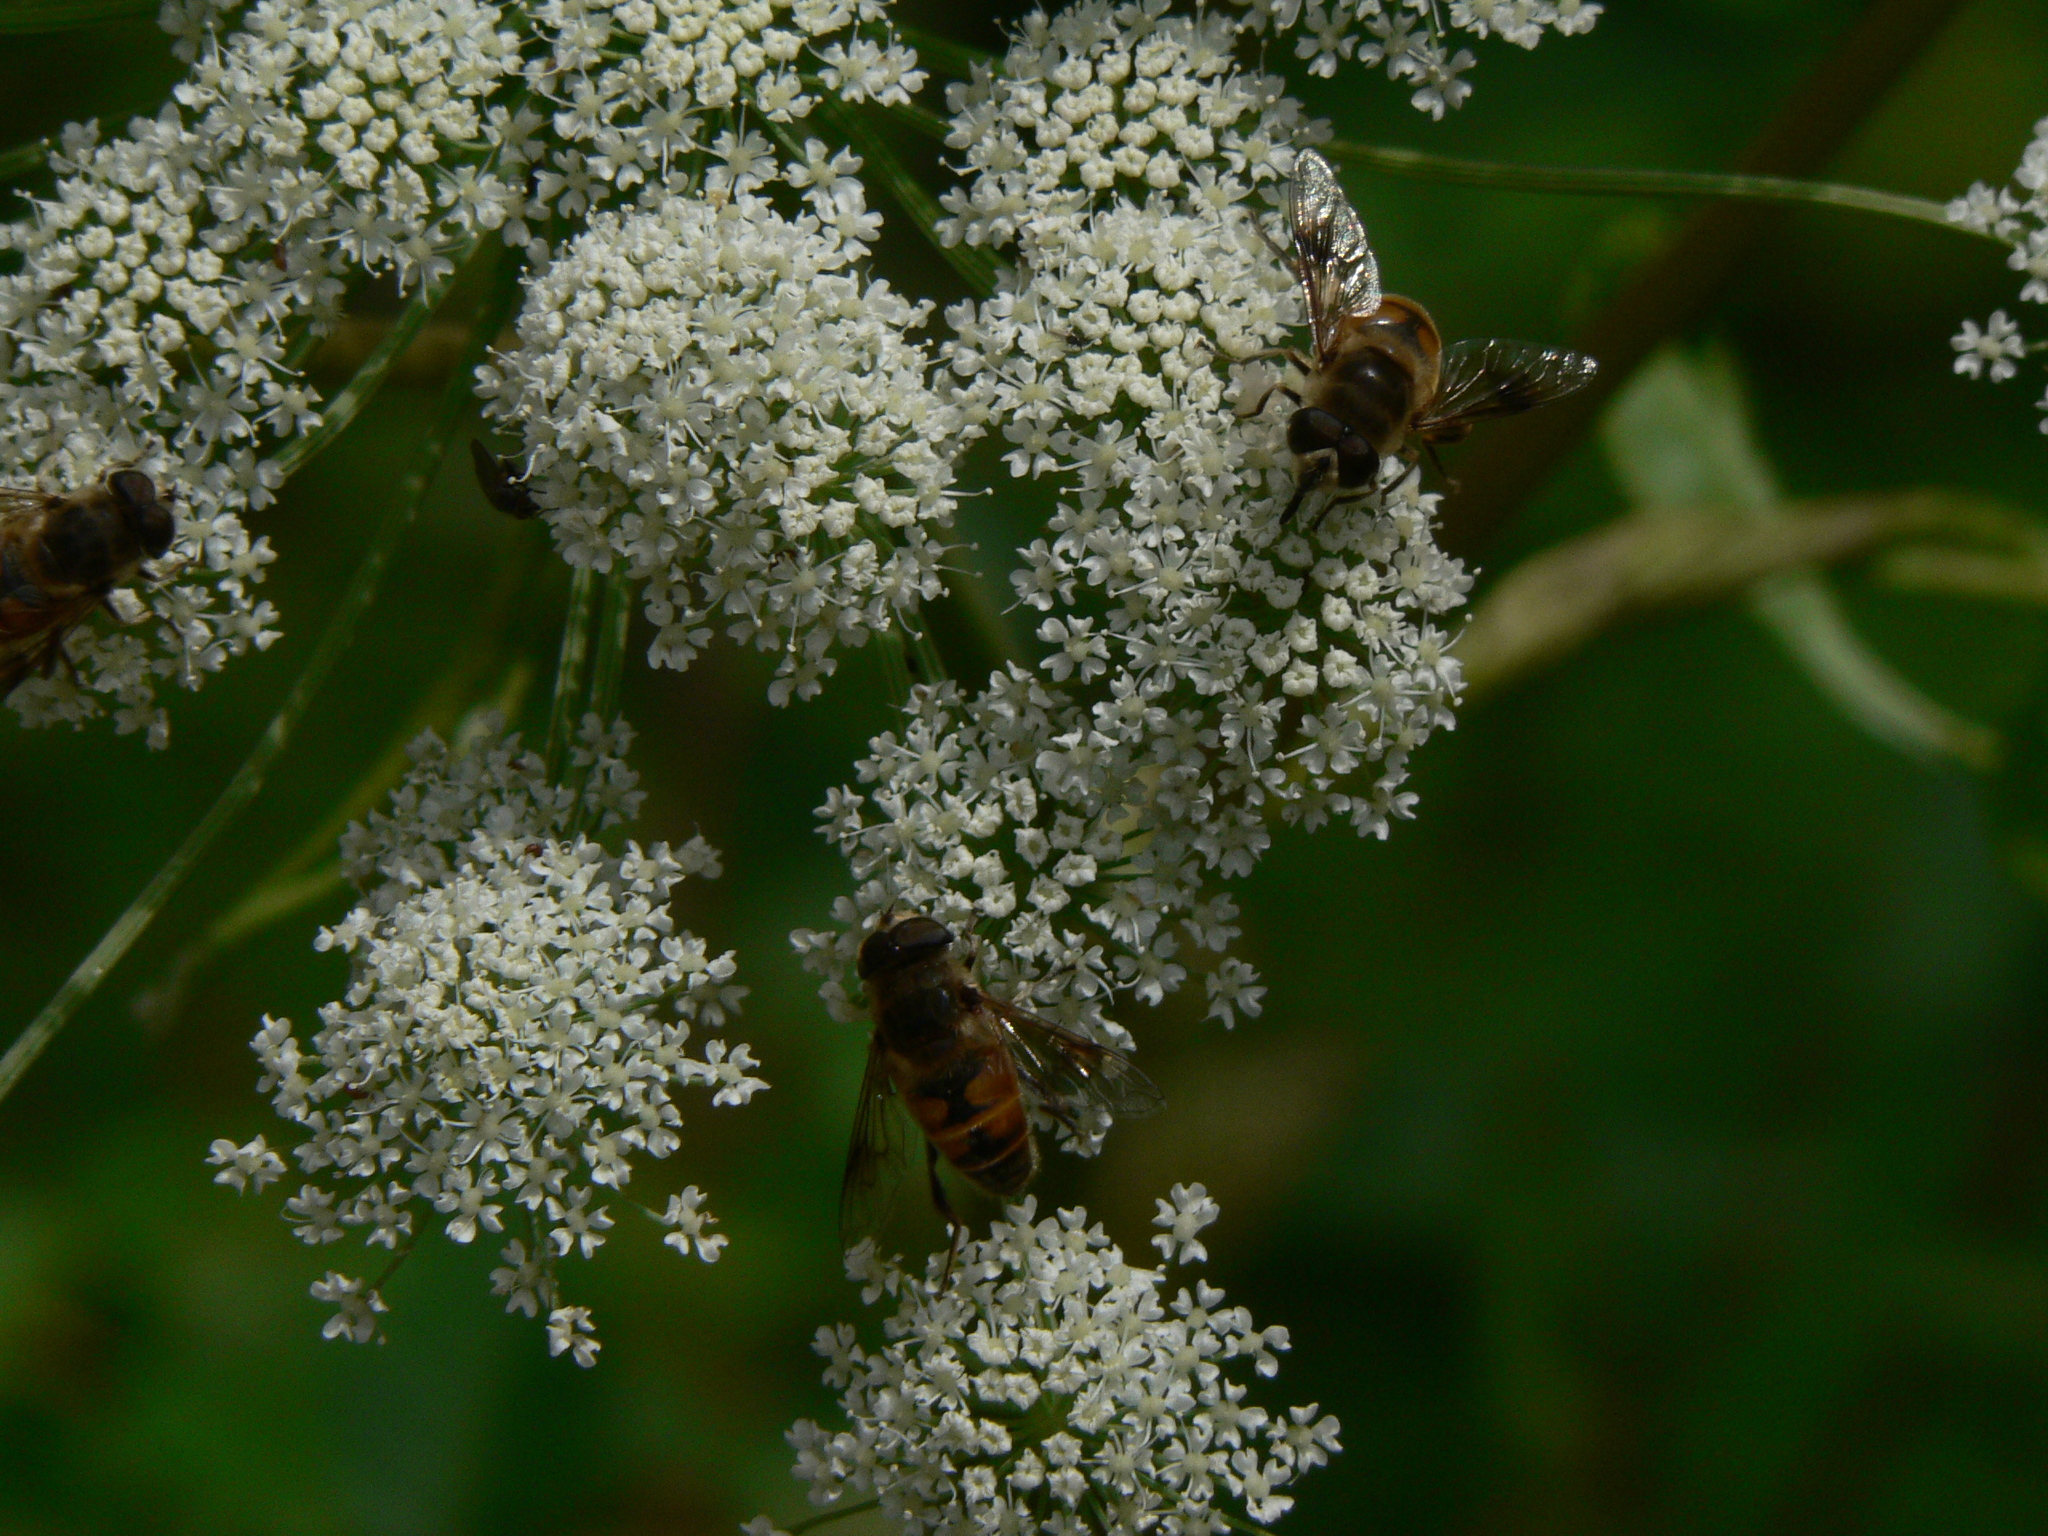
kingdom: Animalia
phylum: Arthropoda
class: Insecta
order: Diptera
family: Syrphidae
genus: Eristalis
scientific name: Eristalis tenax
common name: Drone fly
